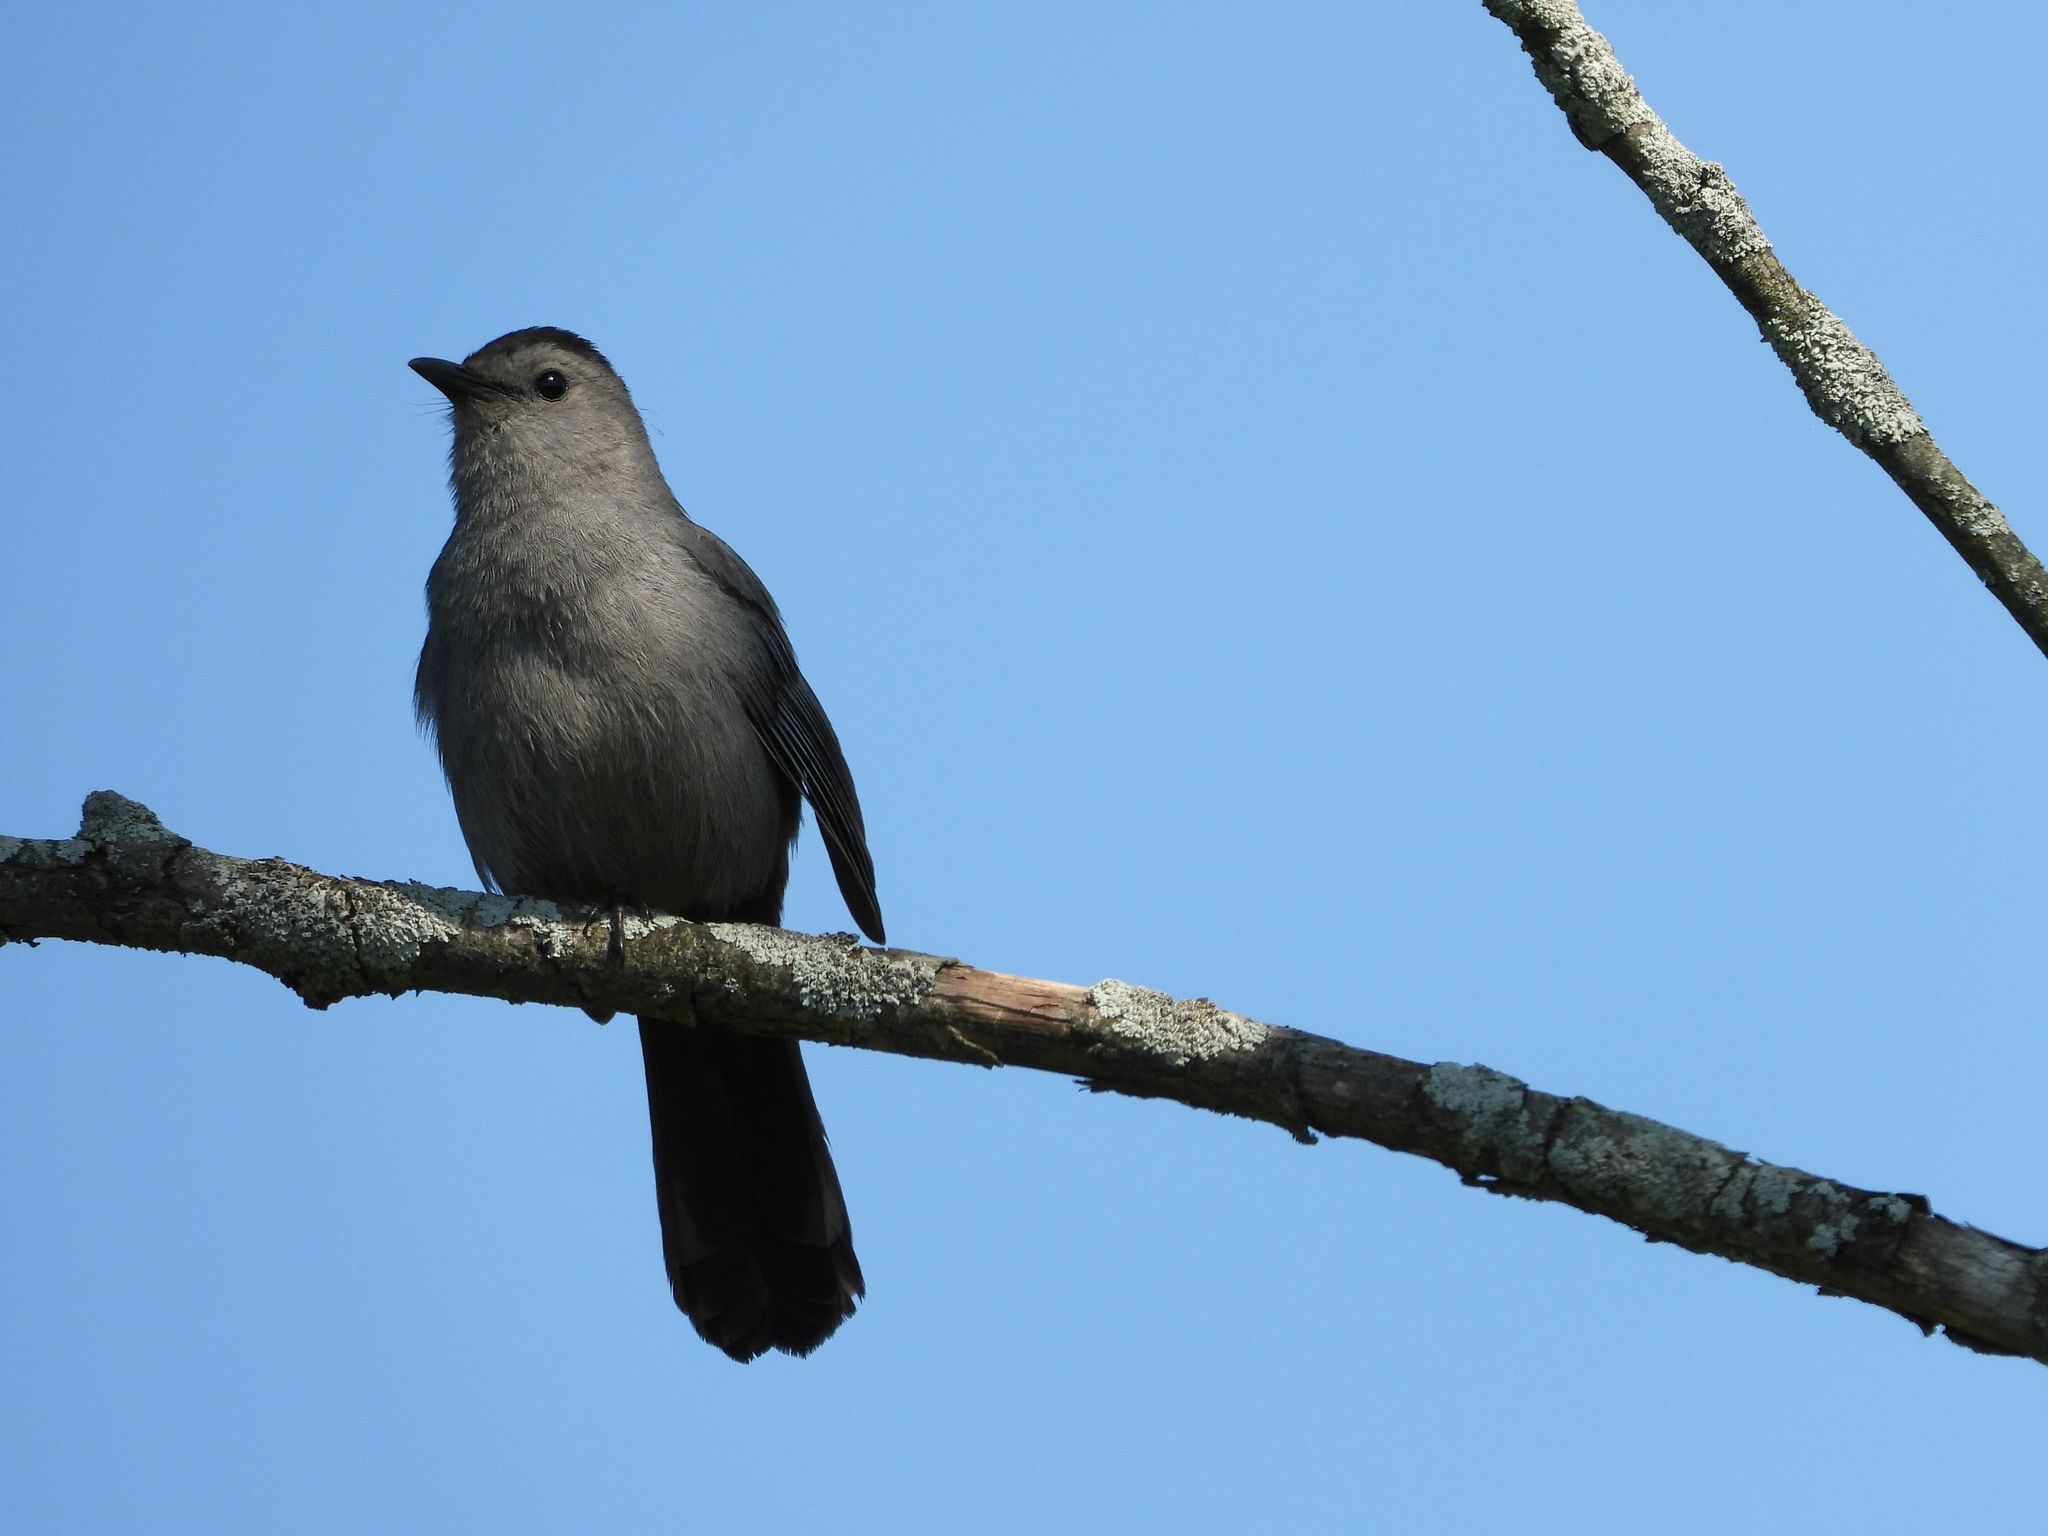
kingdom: Animalia
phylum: Chordata
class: Aves
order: Passeriformes
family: Mimidae
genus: Dumetella
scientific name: Dumetella carolinensis
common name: Gray catbird
